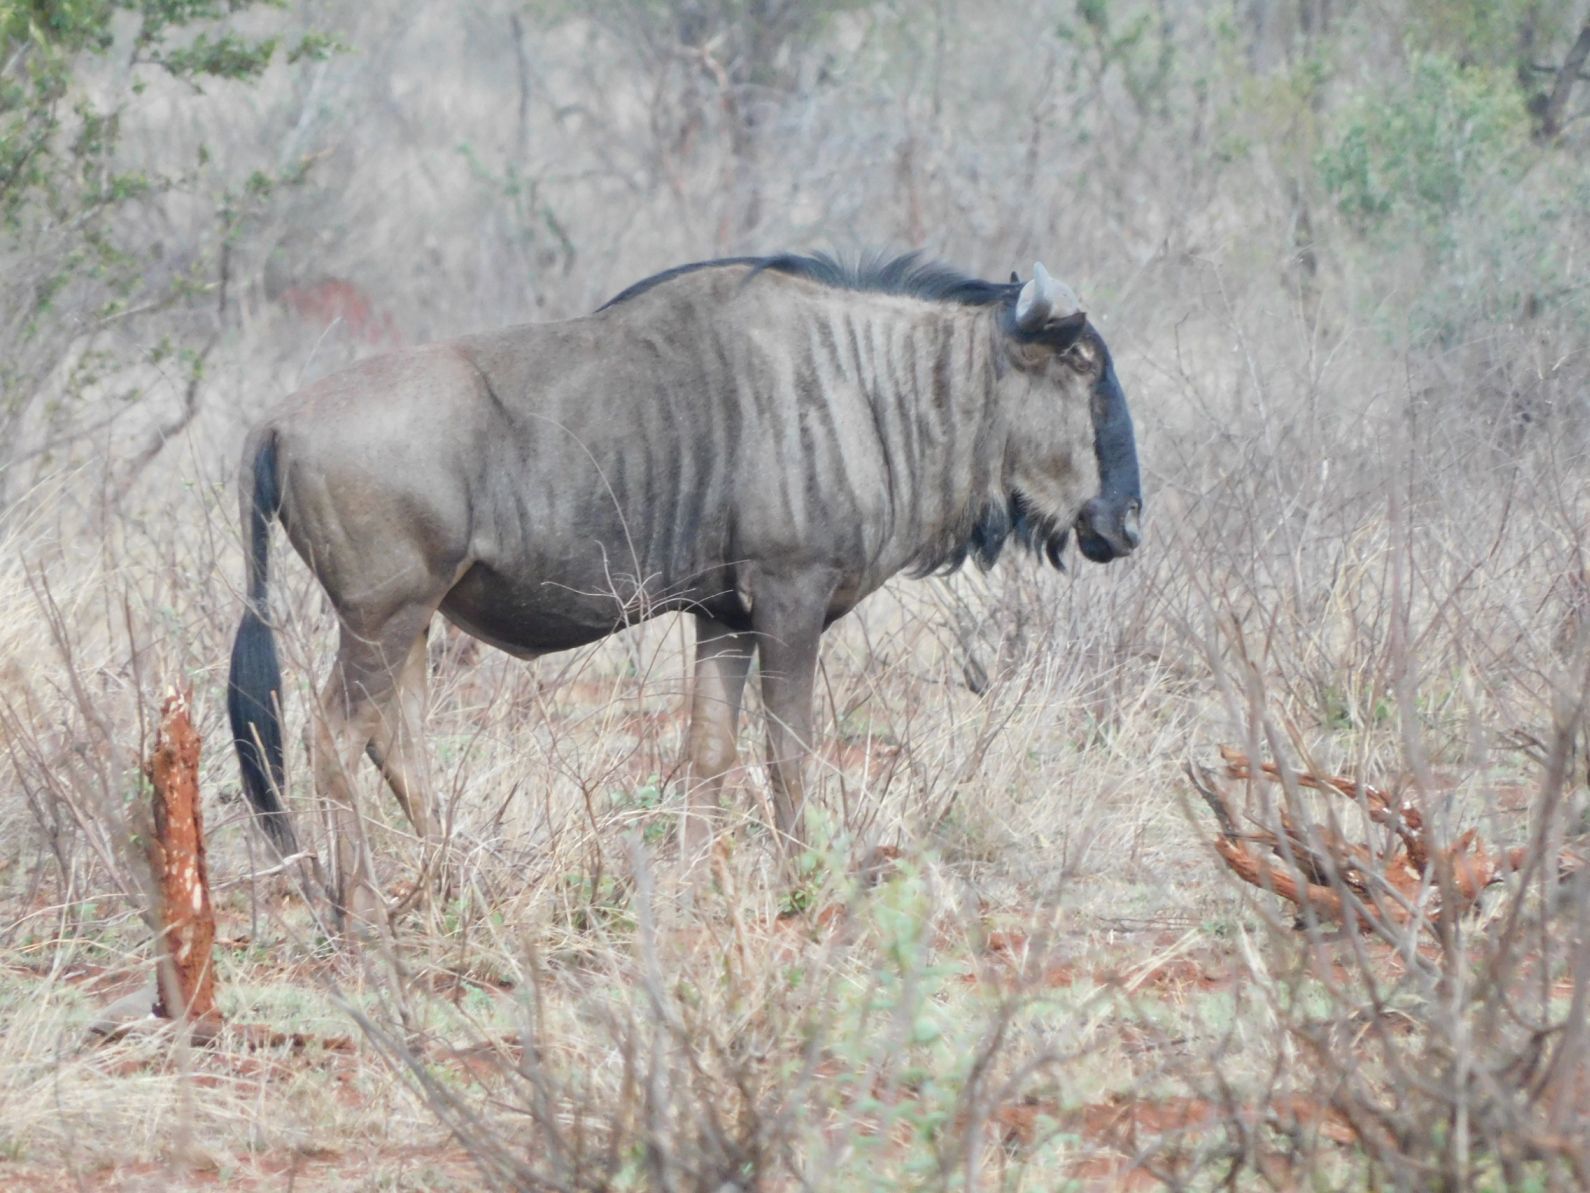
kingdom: Animalia
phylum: Chordata
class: Mammalia
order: Artiodactyla
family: Bovidae
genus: Connochaetes
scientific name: Connochaetes taurinus
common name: Blue wildebeest
